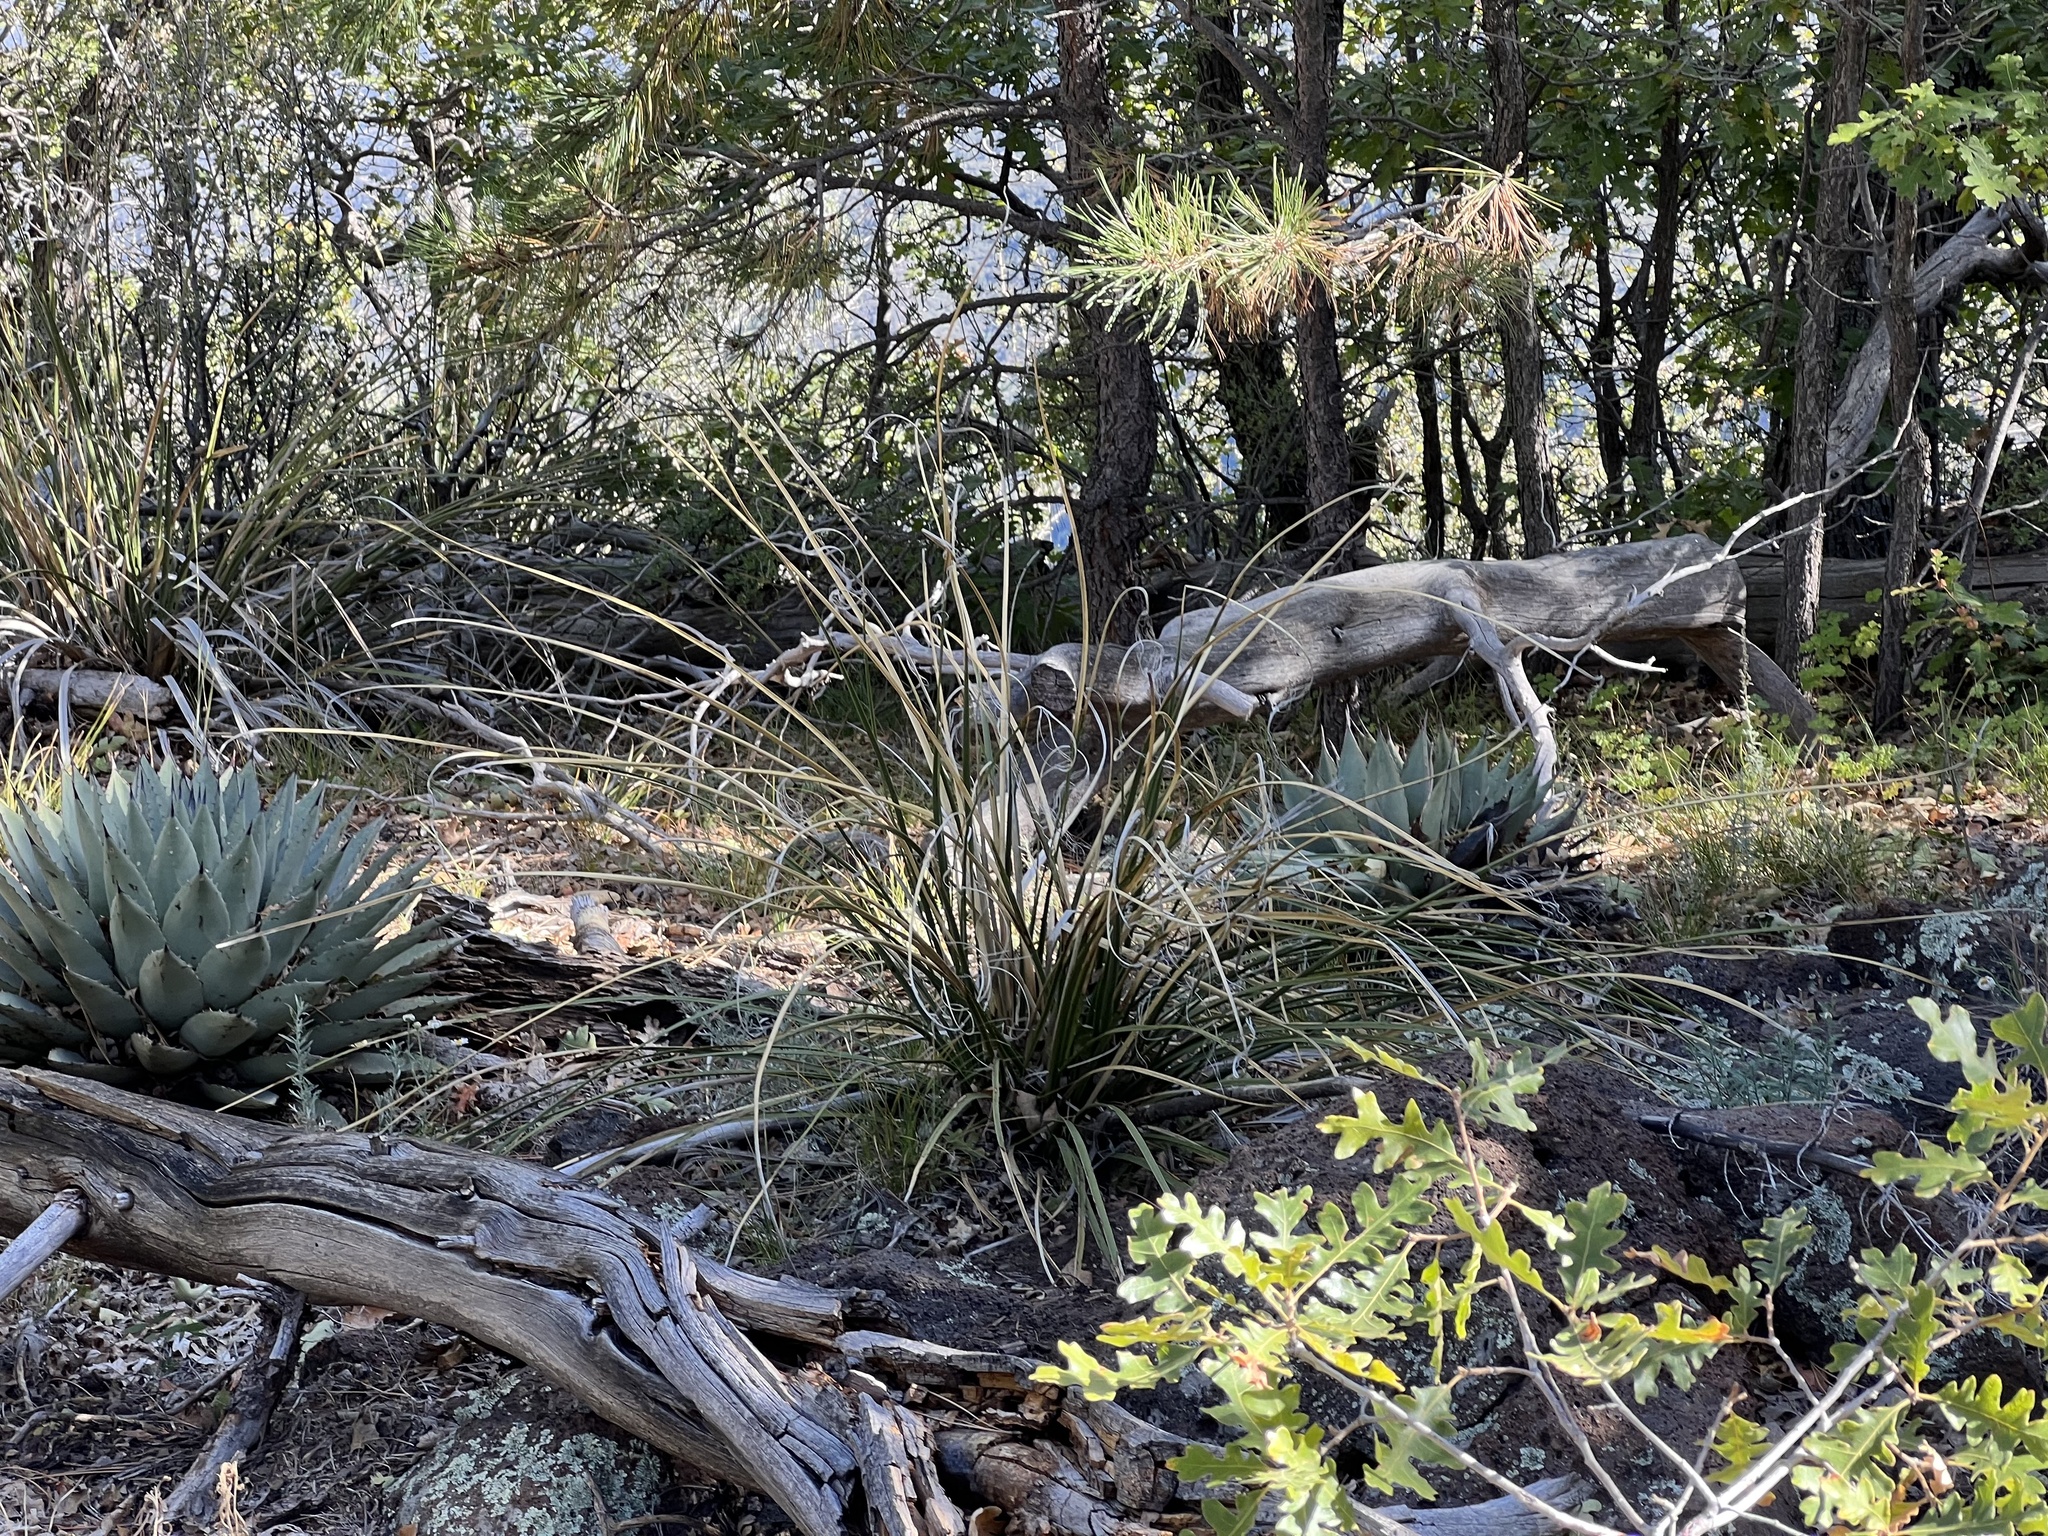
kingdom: Plantae
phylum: Tracheophyta
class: Liliopsida
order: Asparagales
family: Asparagaceae
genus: Nolina
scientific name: Nolina microcarpa
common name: Bear-grass
